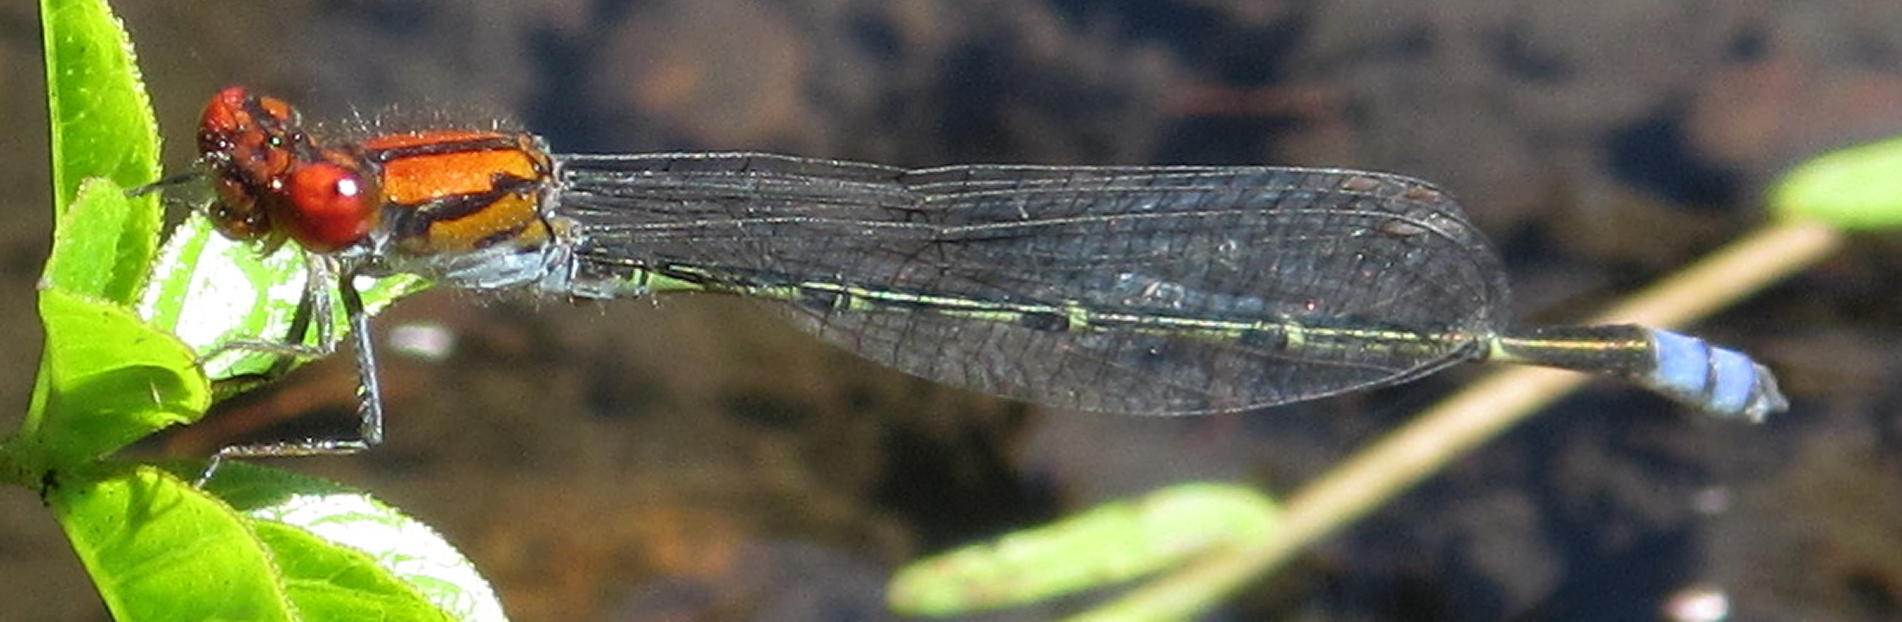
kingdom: Animalia
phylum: Arthropoda
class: Insecta
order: Odonata
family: Coenagrionidae
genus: Pseudagrion
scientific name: Pseudagrion massaicum
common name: Masai sprite
